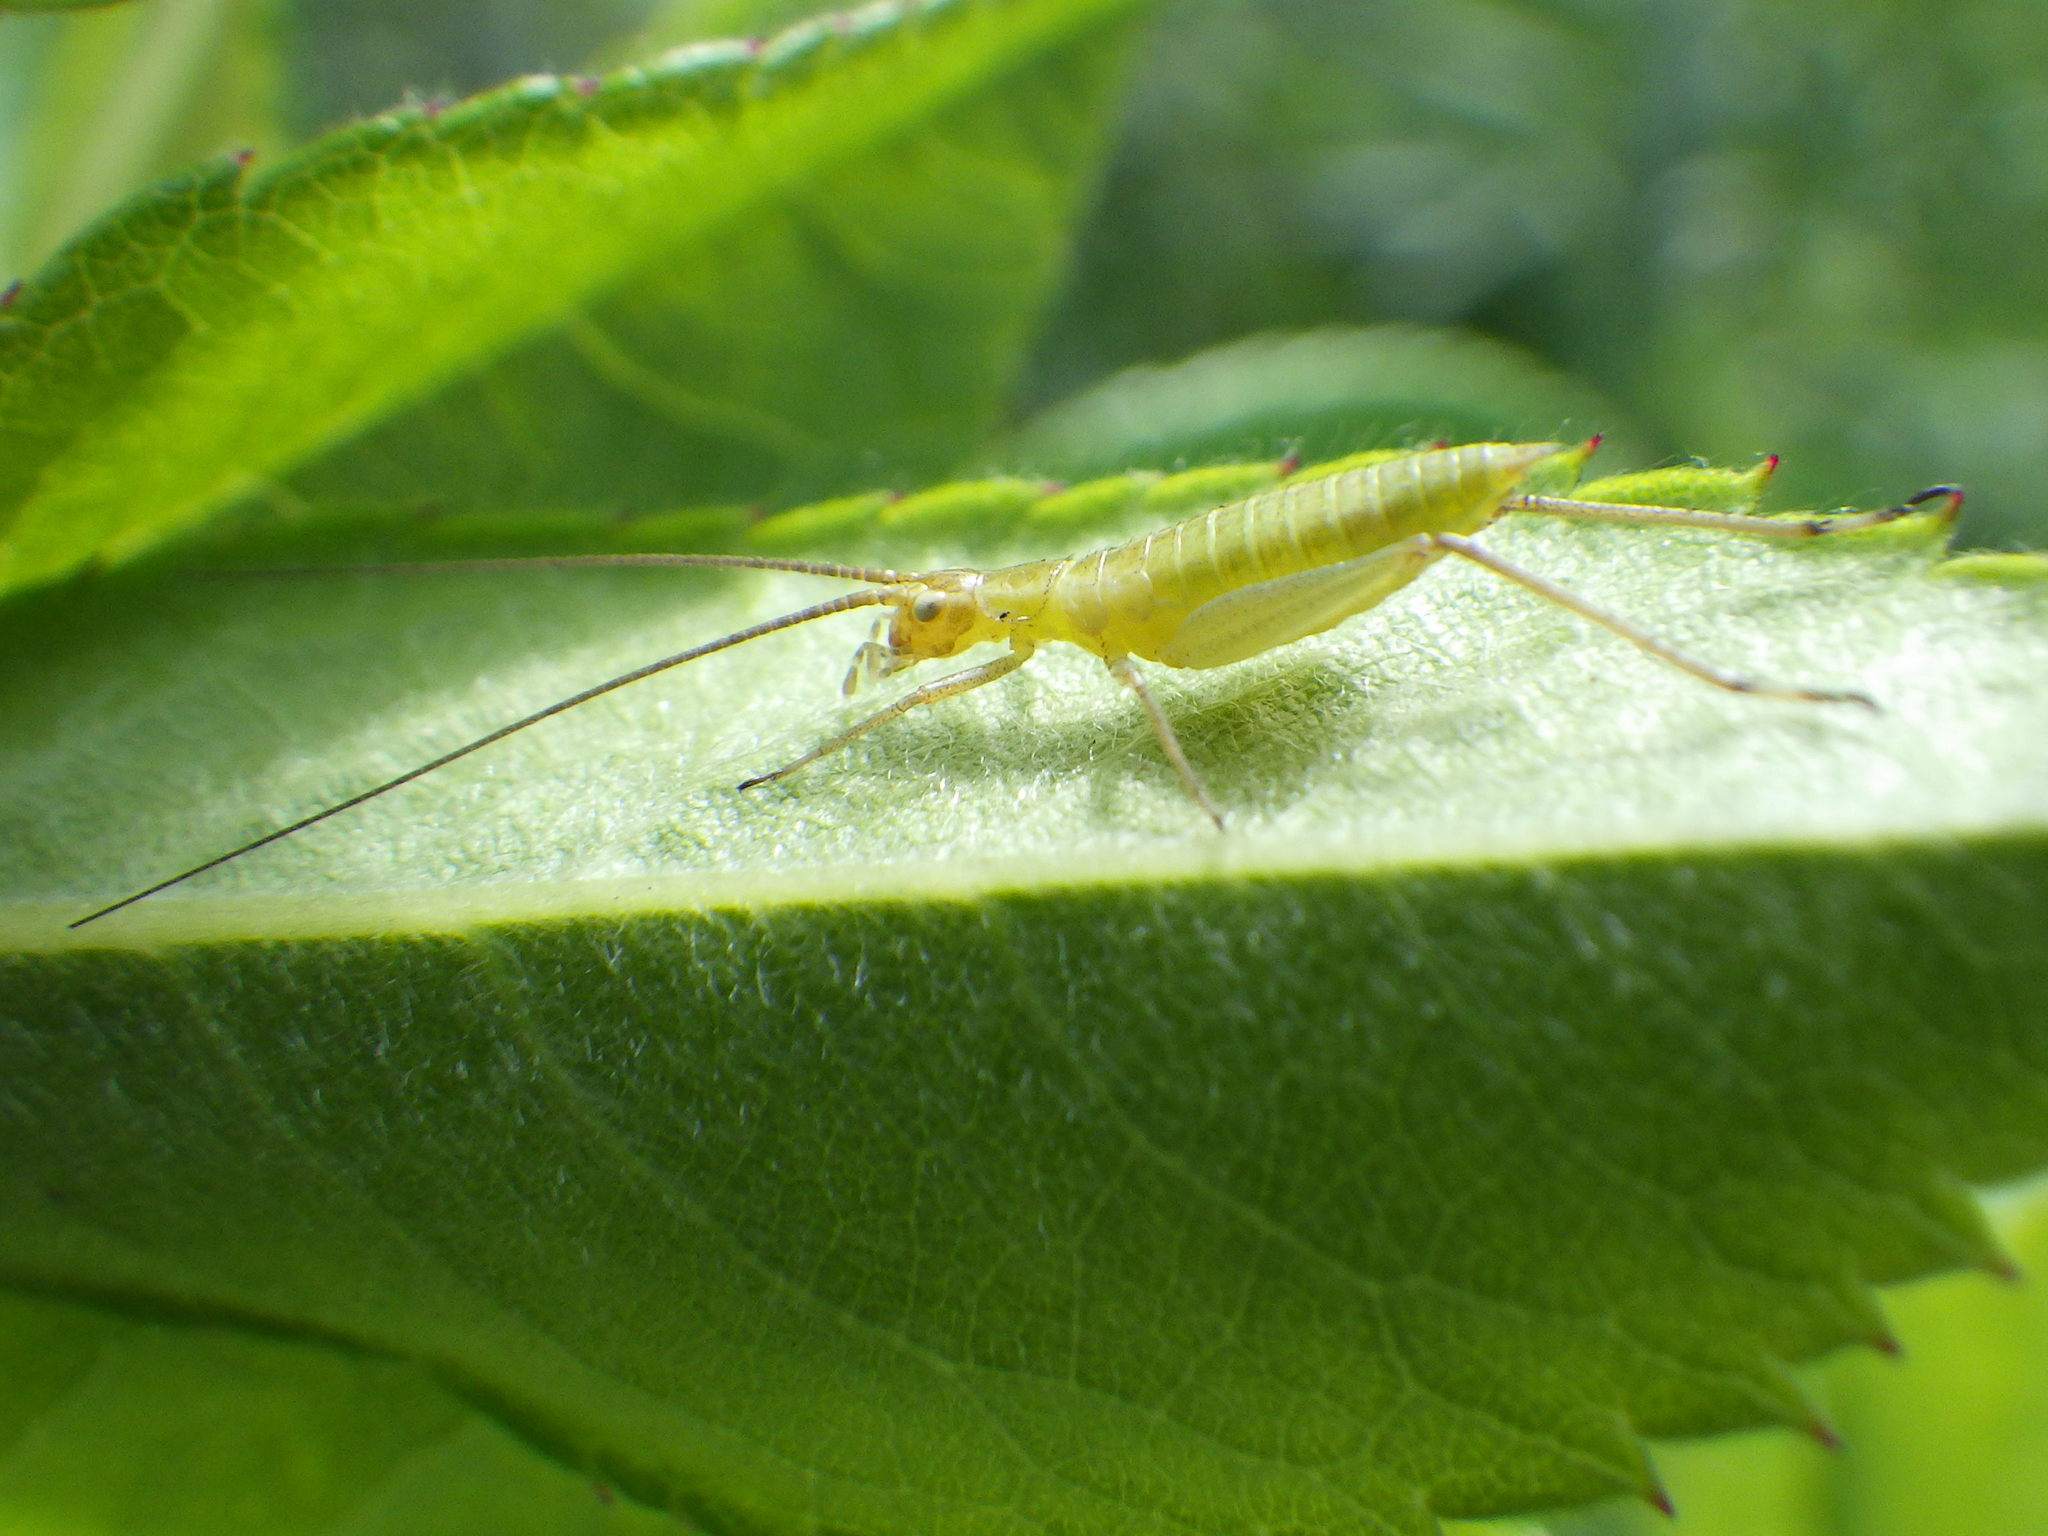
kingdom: Animalia
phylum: Arthropoda
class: Insecta
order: Orthoptera
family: Gryllidae
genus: Oecanthus
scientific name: Oecanthus nigricornis
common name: Black-horned tree cricket
